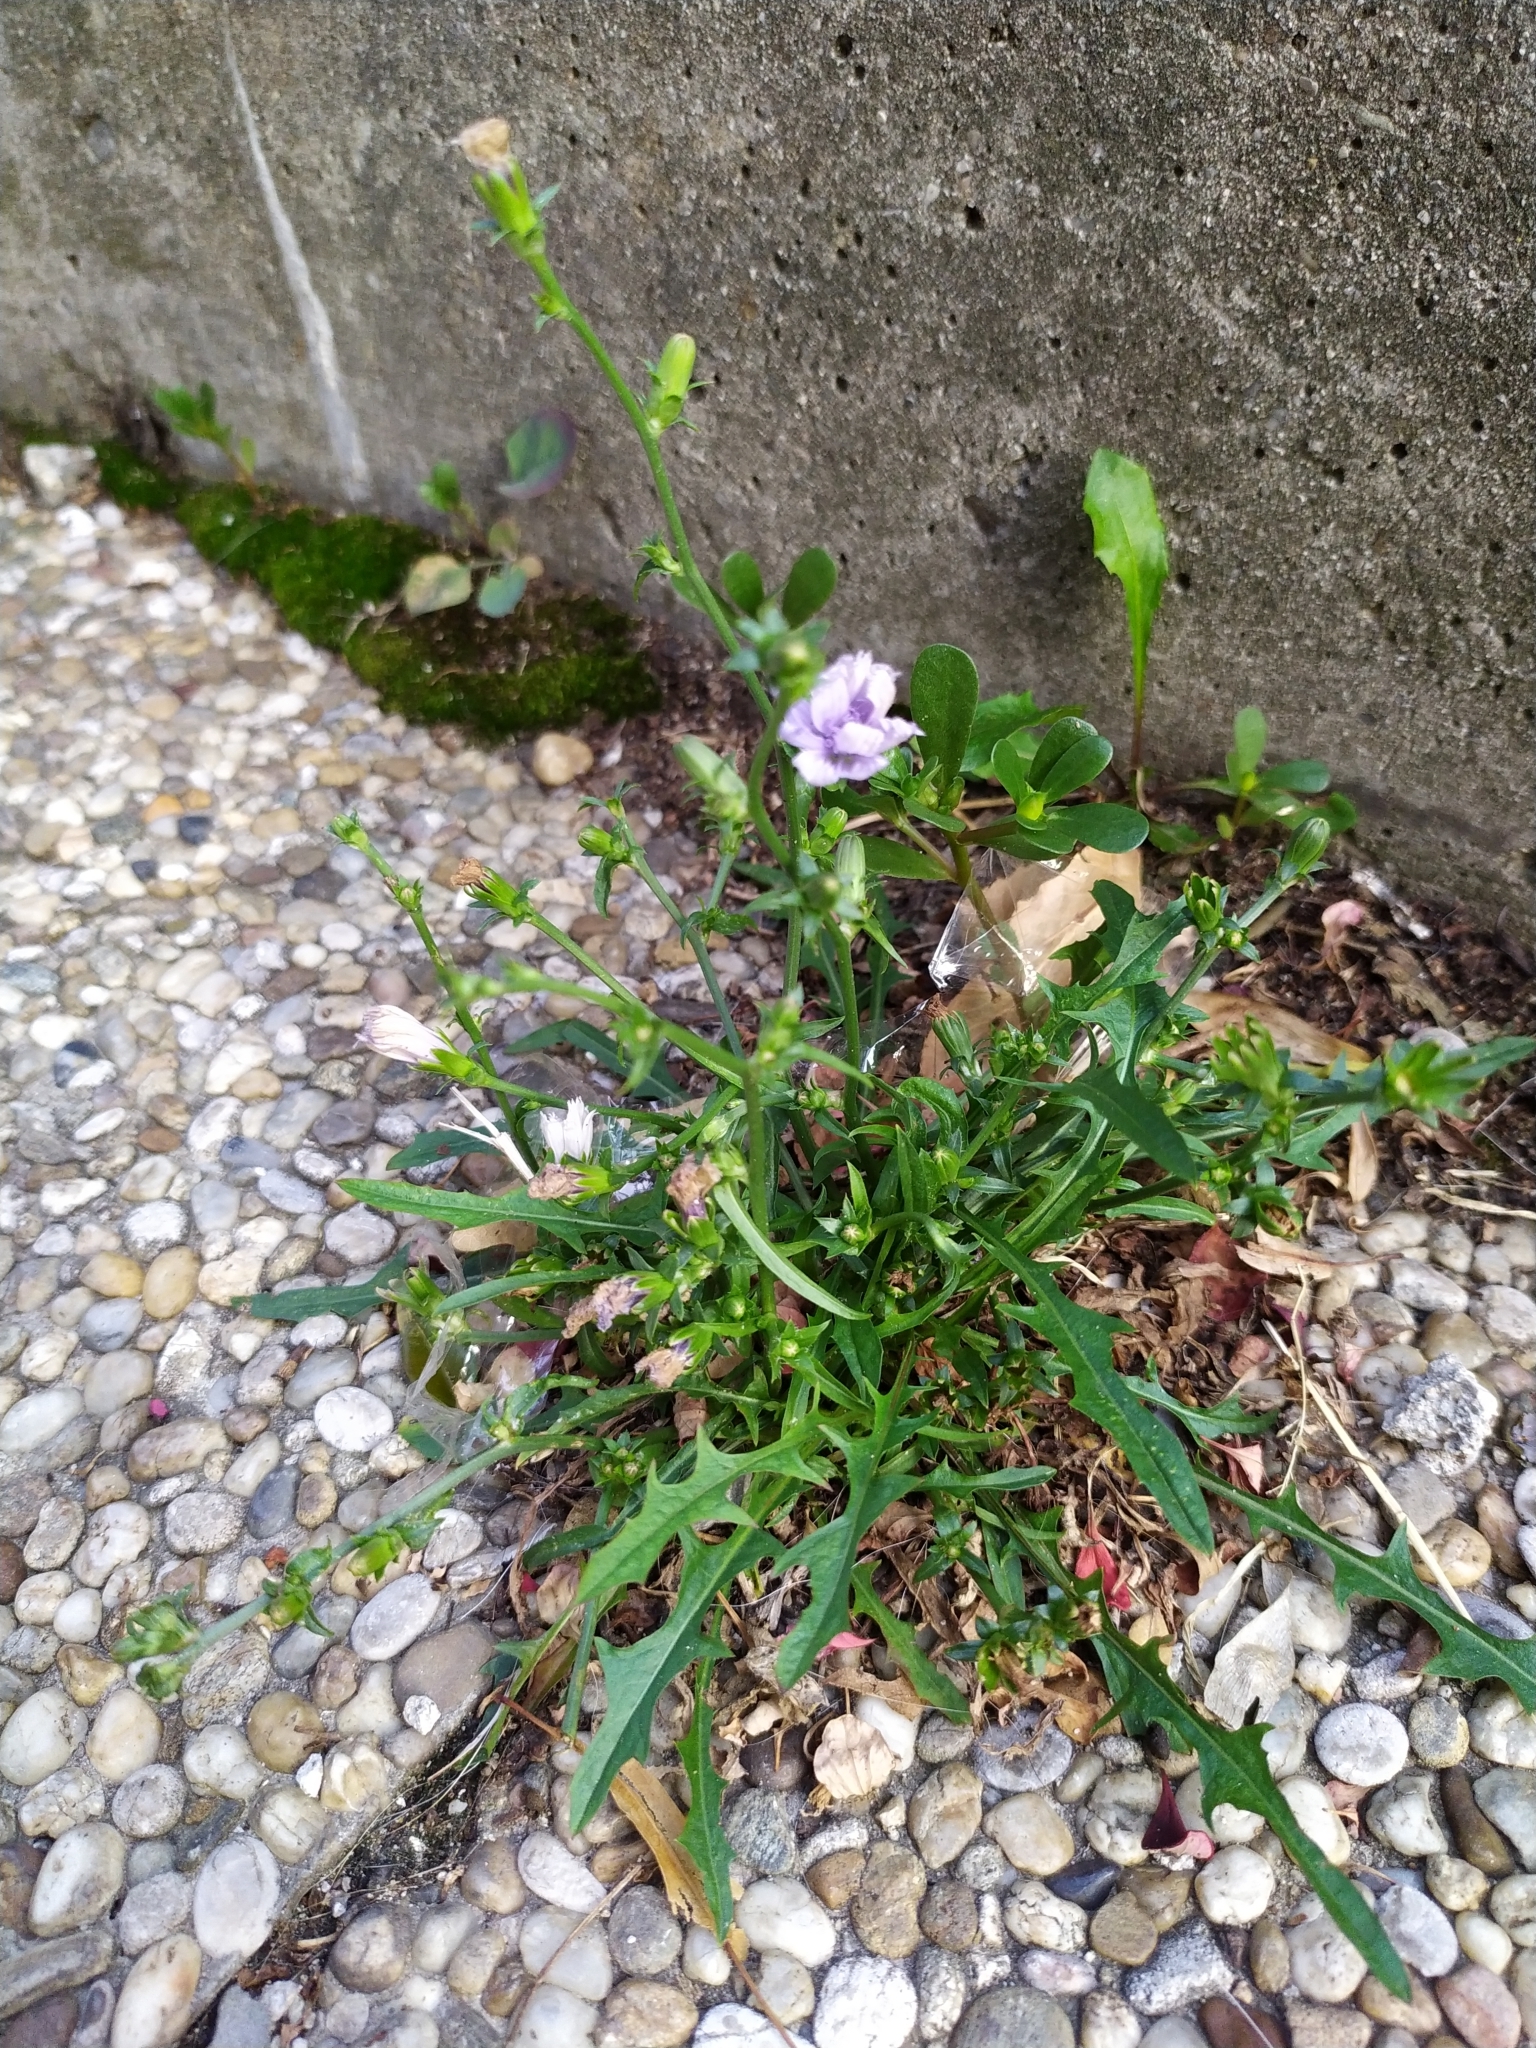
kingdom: Plantae
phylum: Tracheophyta
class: Magnoliopsida
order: Asterales
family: Asteraceae
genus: Cichorium
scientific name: Cichorium intybus
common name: Chicory
